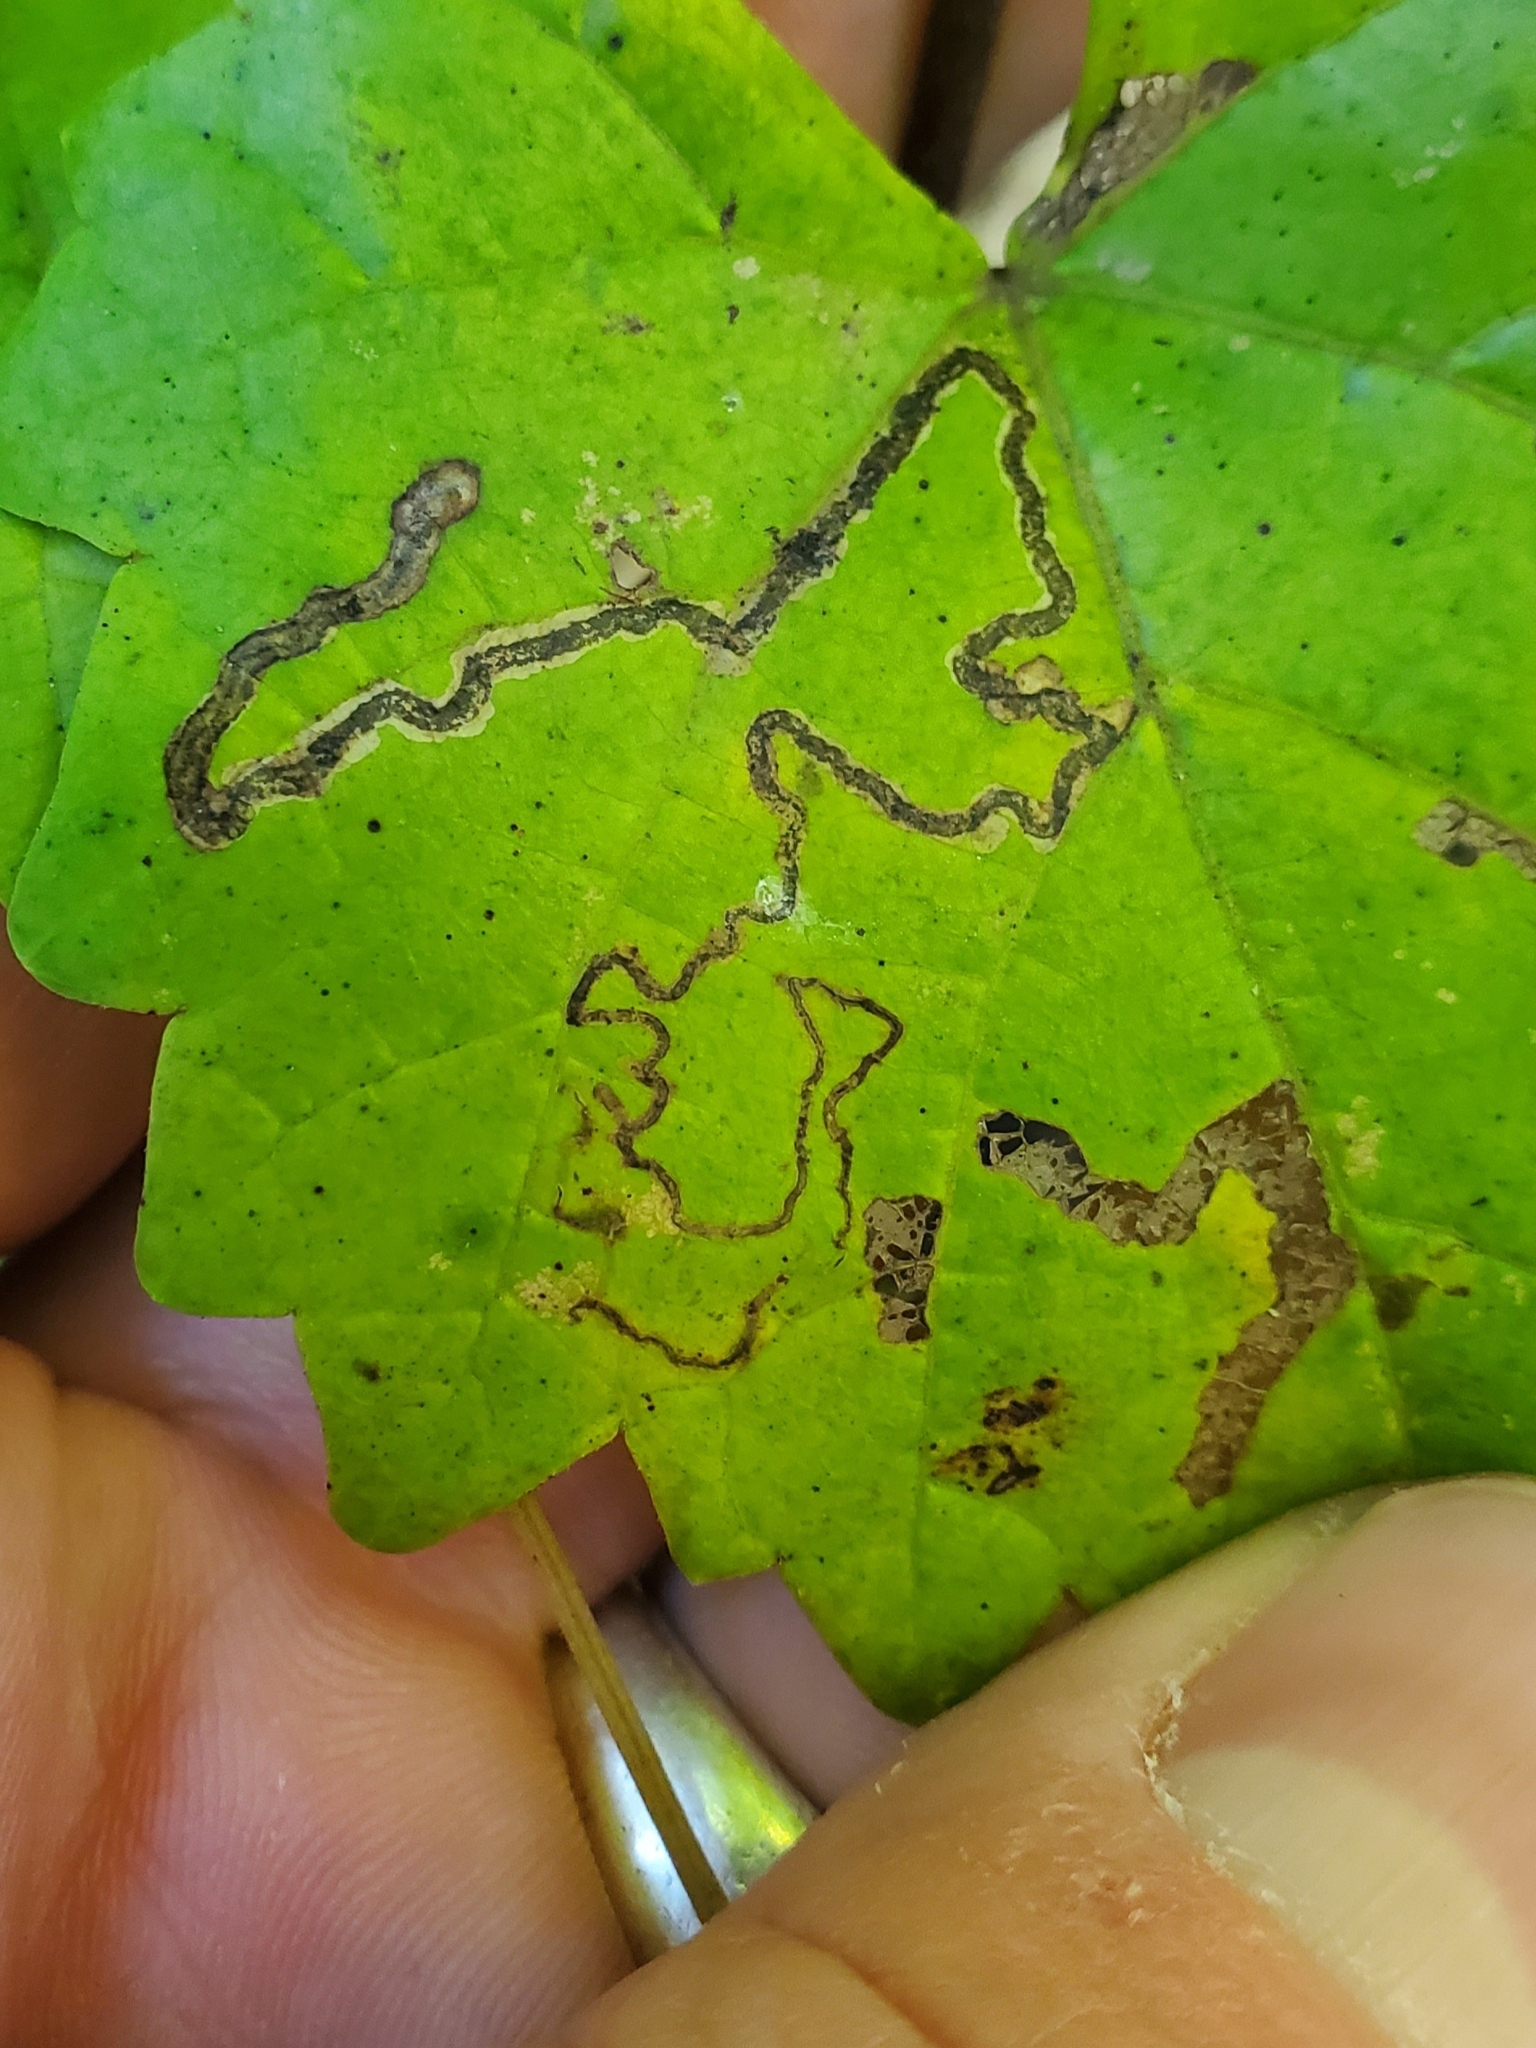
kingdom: Animalia
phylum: Arthropoda
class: Insecta
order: Lepidoptera
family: Gracillariidae
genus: Phyllocnistis
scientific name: Phyllocnistis vitifoliella
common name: Grape leaf-miner moth
